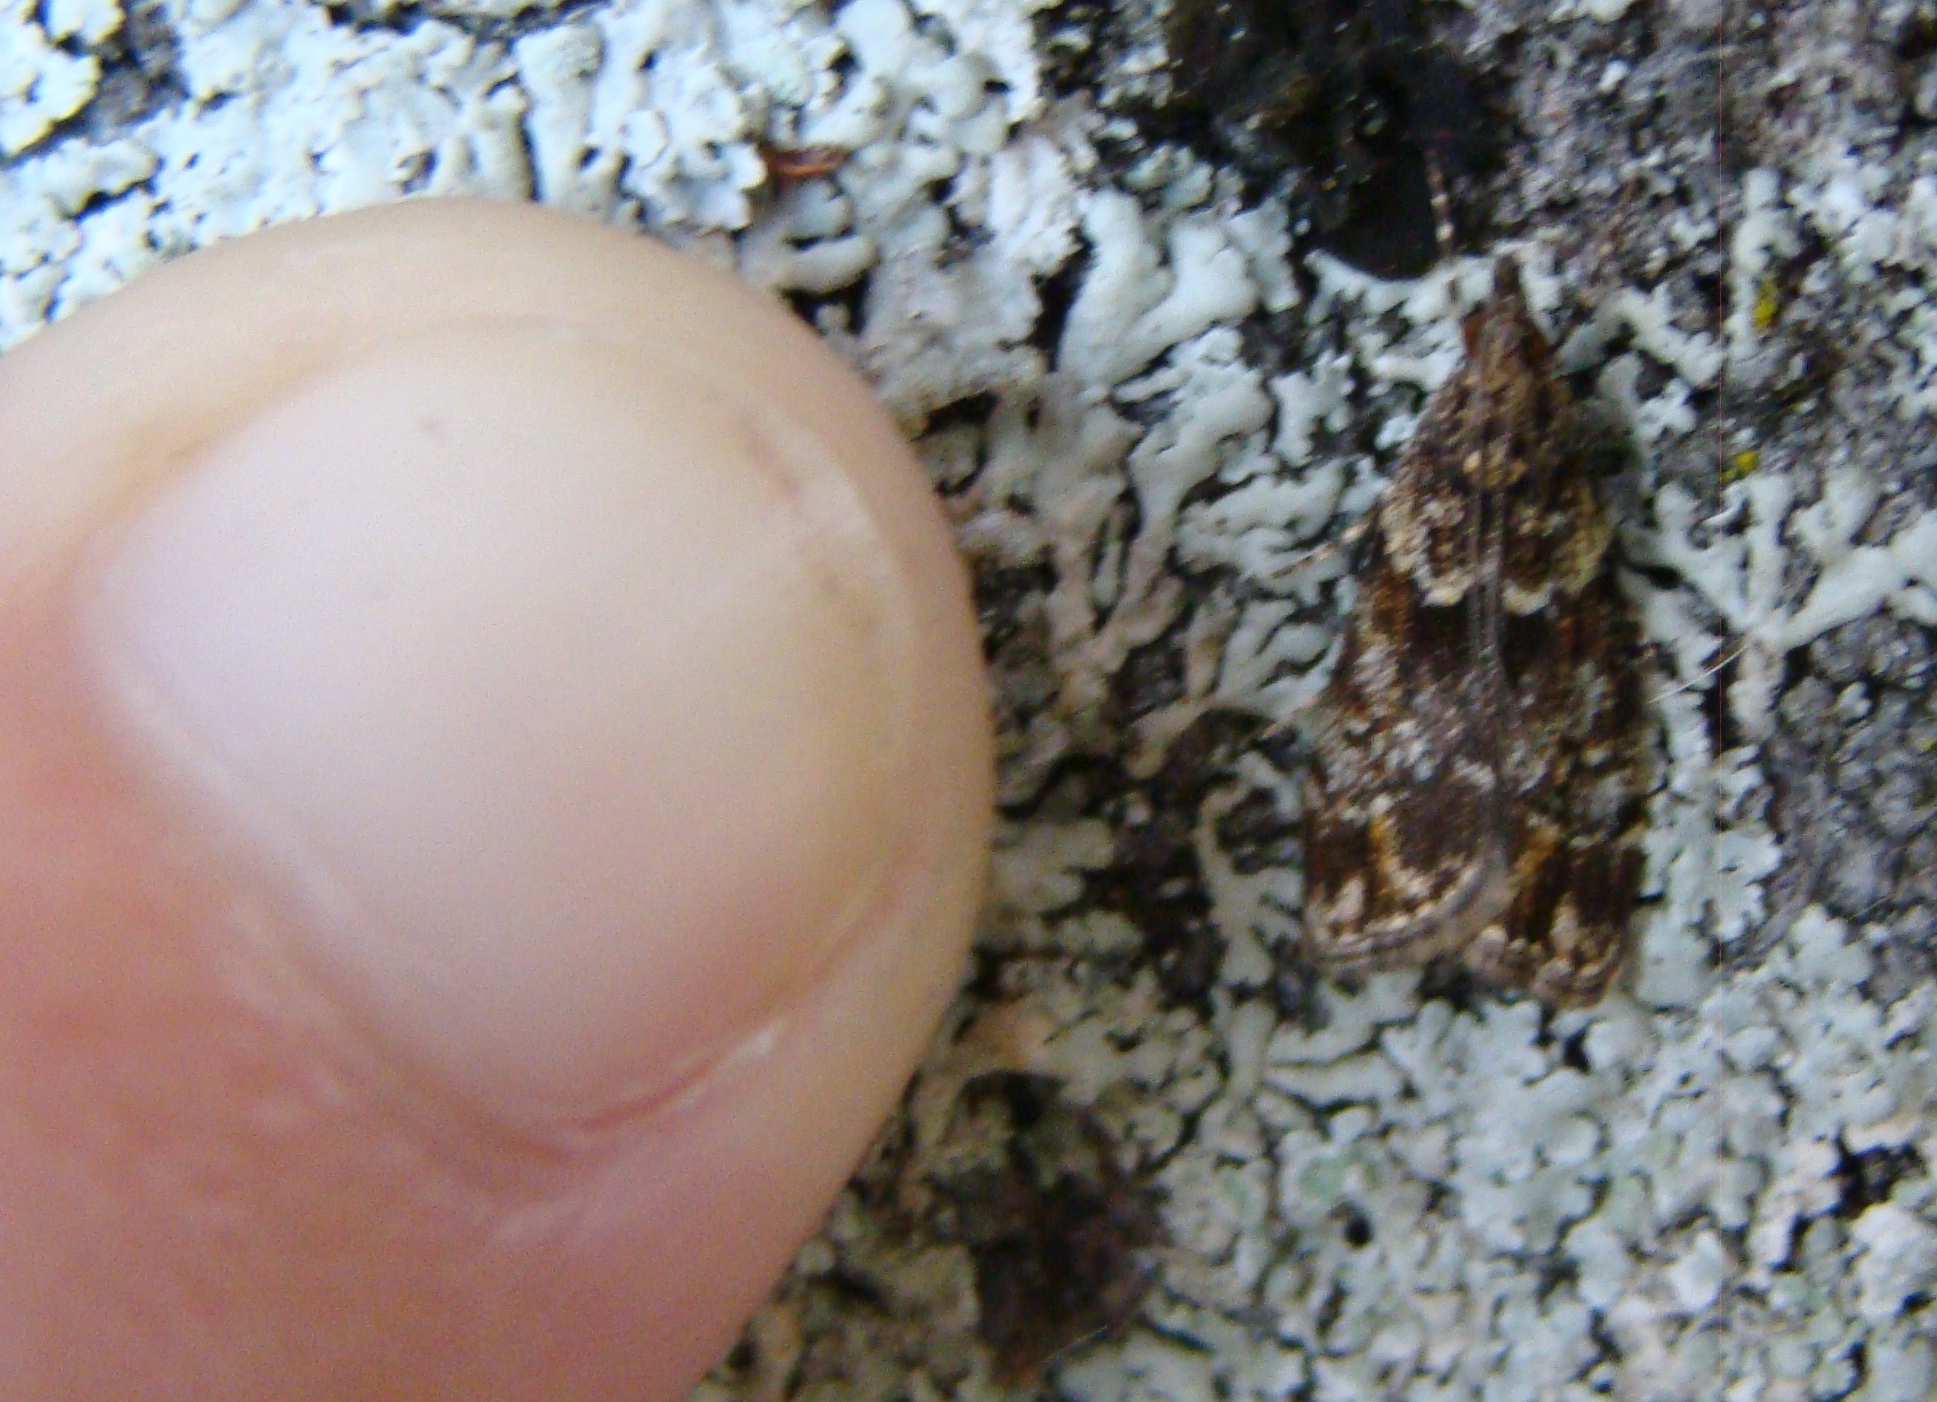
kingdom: Animalia
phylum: Arthropoda
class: Insecta
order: Lepidoptera
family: Crambidae
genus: Eudonia
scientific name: Eudonia minualis
